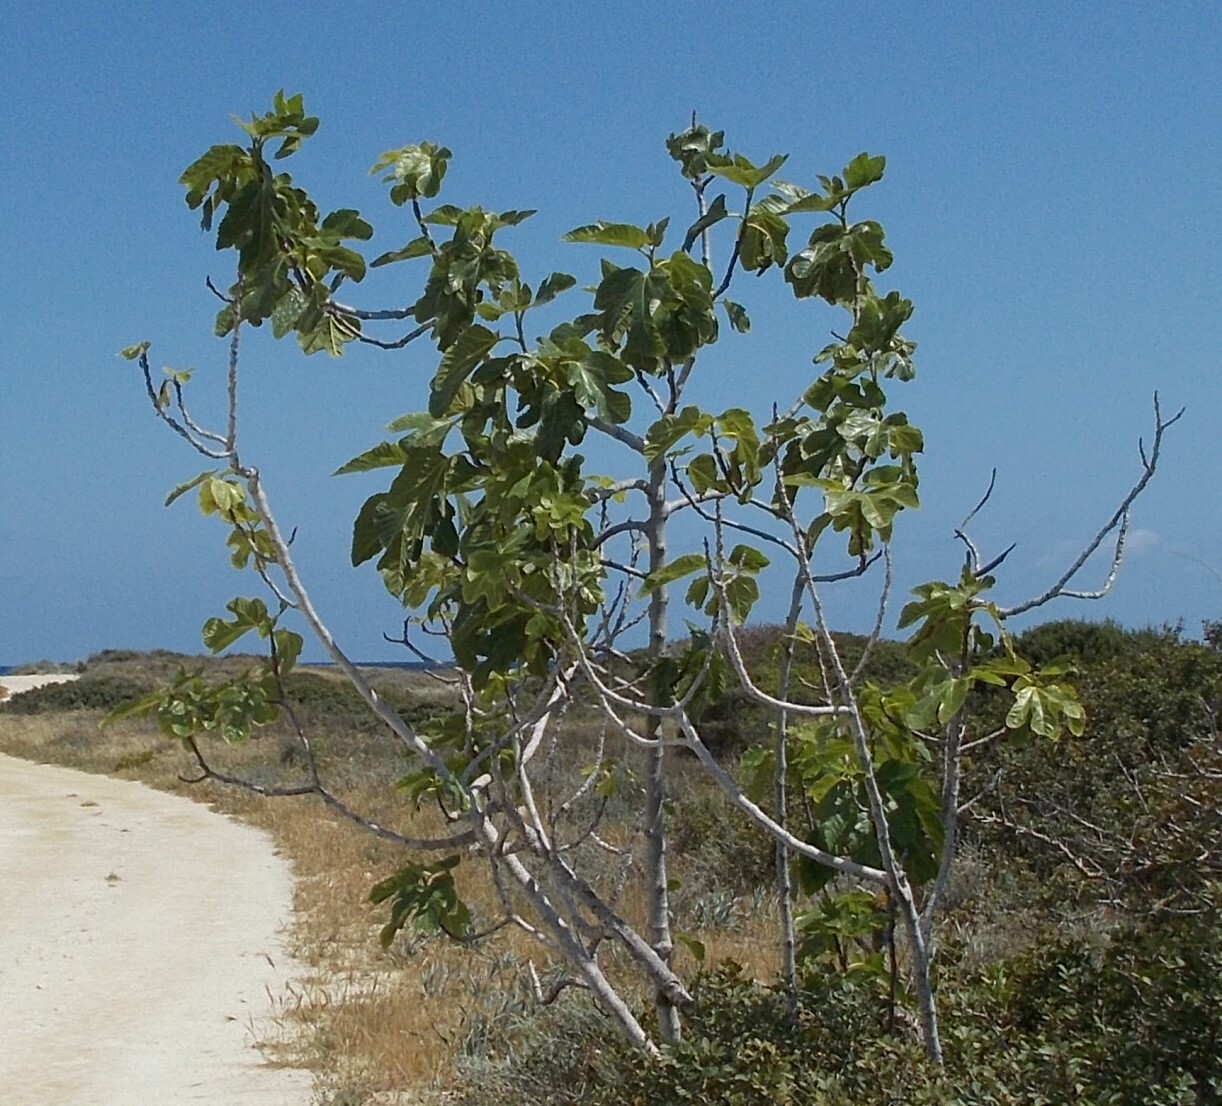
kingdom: Plantae
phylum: Tracheophyta
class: Magnoliopsida
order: Rosales
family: Moraceae
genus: Ficus
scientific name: Ficus carica
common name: Fig
